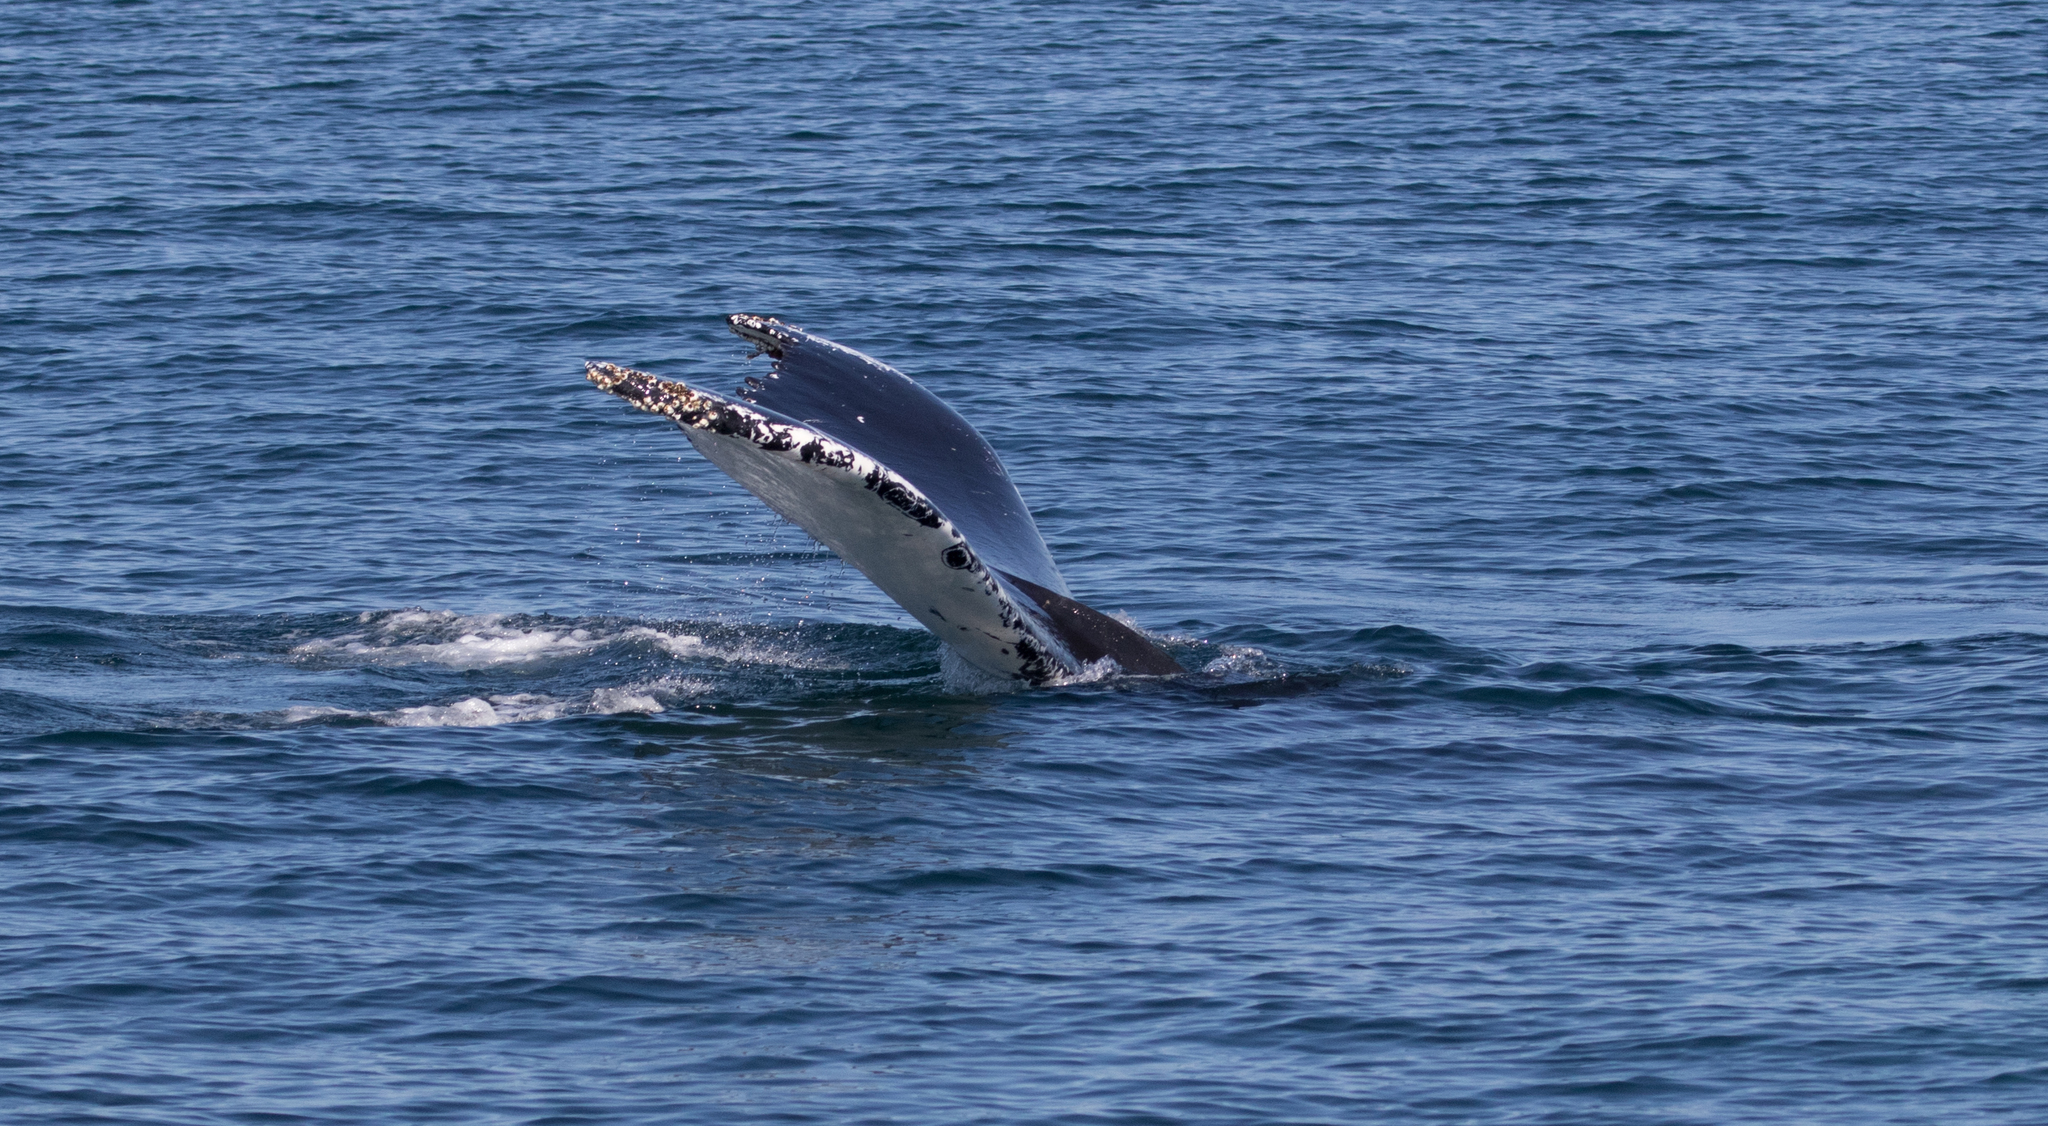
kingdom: Animalia
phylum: Chordata
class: Mammalia
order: Cetacea
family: Balaenopteridae
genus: Megaptera
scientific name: Megaptera novaeangliae
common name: Humpback whale
